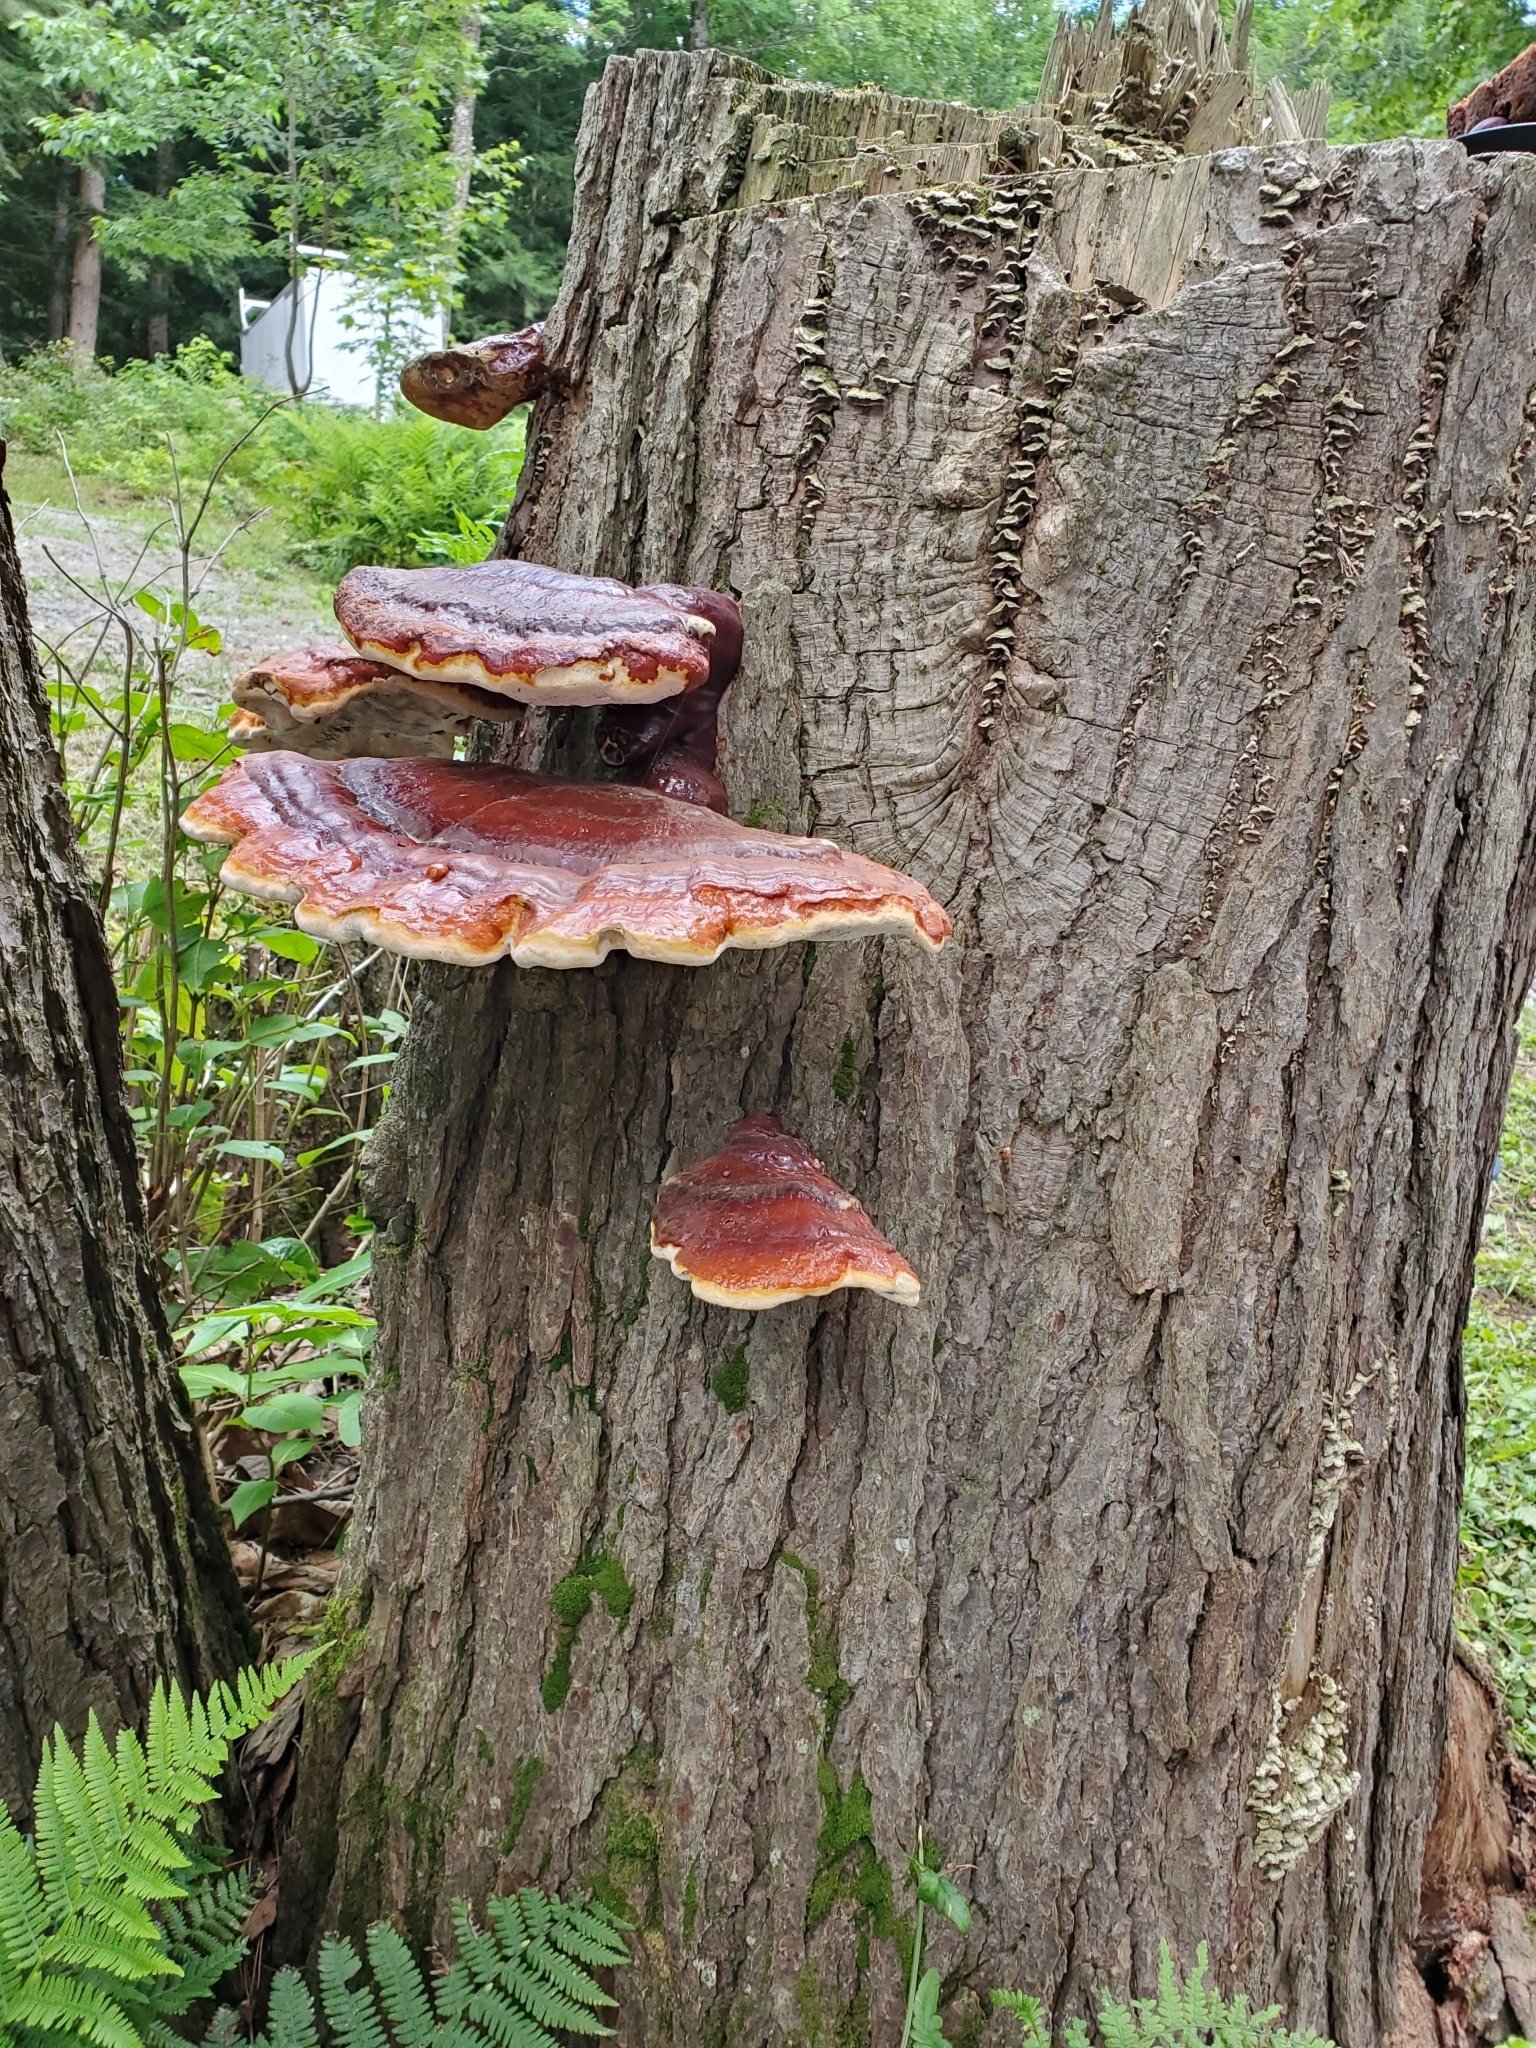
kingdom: Fungi
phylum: Basidiomycota
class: Agaricomycetes
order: Polyporales
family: Polyporaceae
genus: Ganoderma
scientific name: Ganoderma tsugae
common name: Hemlock varnish shelf
